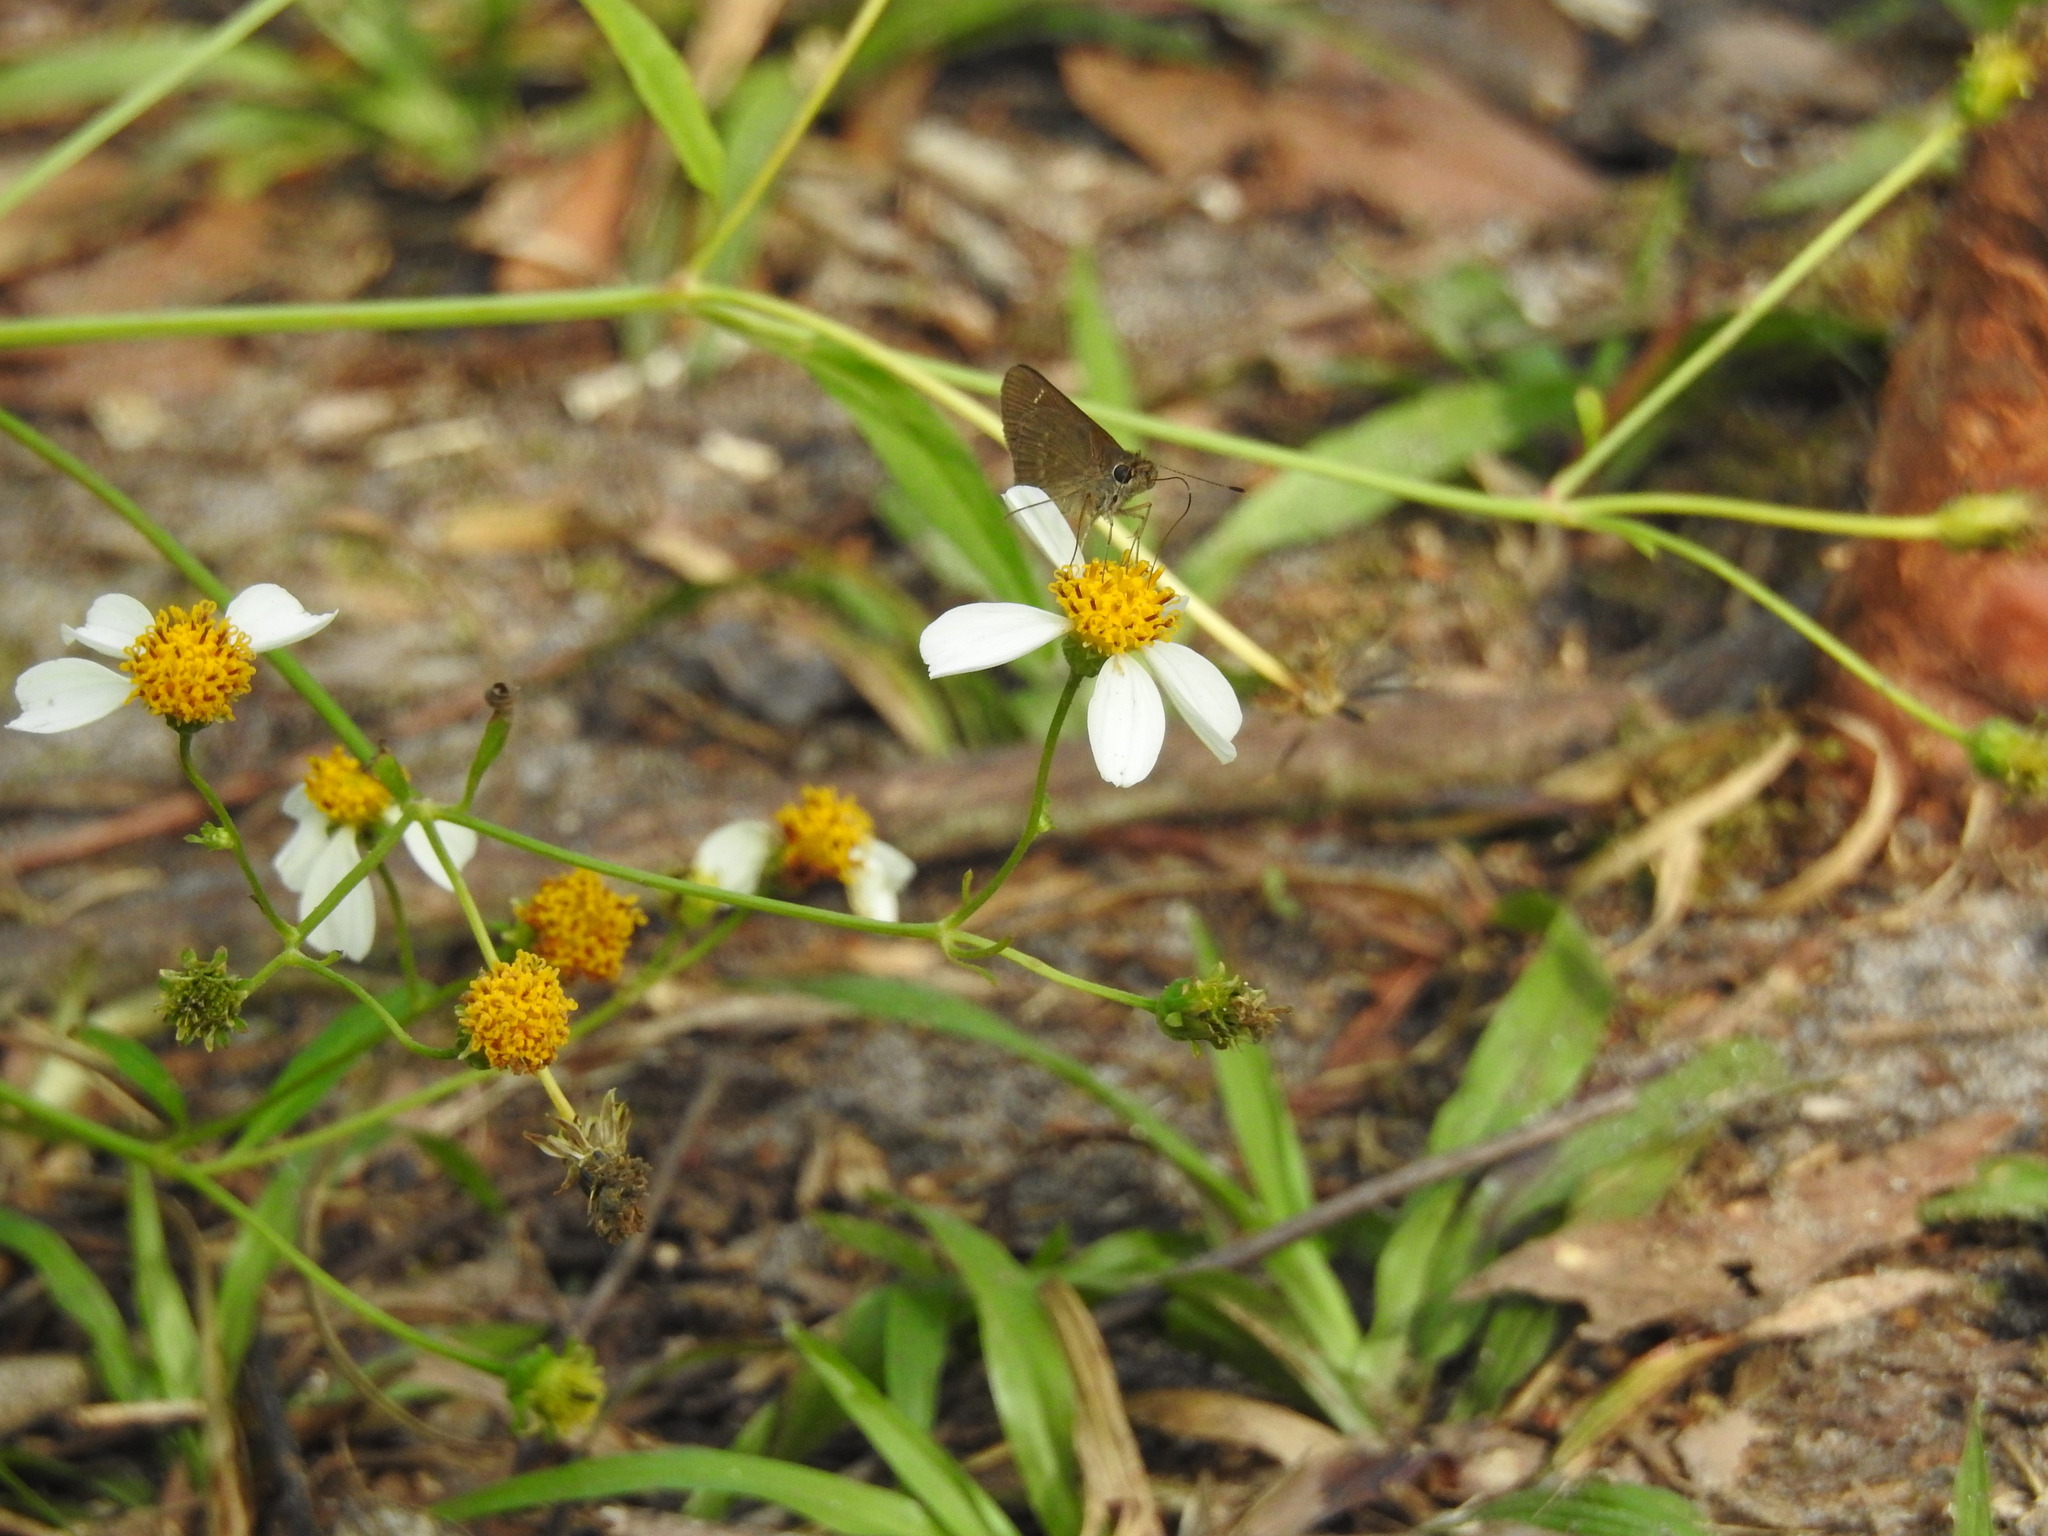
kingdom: Animalia
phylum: Arthropoda
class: Insecta
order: Lepidoptera
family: Hesperiidae
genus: Cymaenes
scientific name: Cymaenes tripunctus
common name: Dingy dotted skipper
